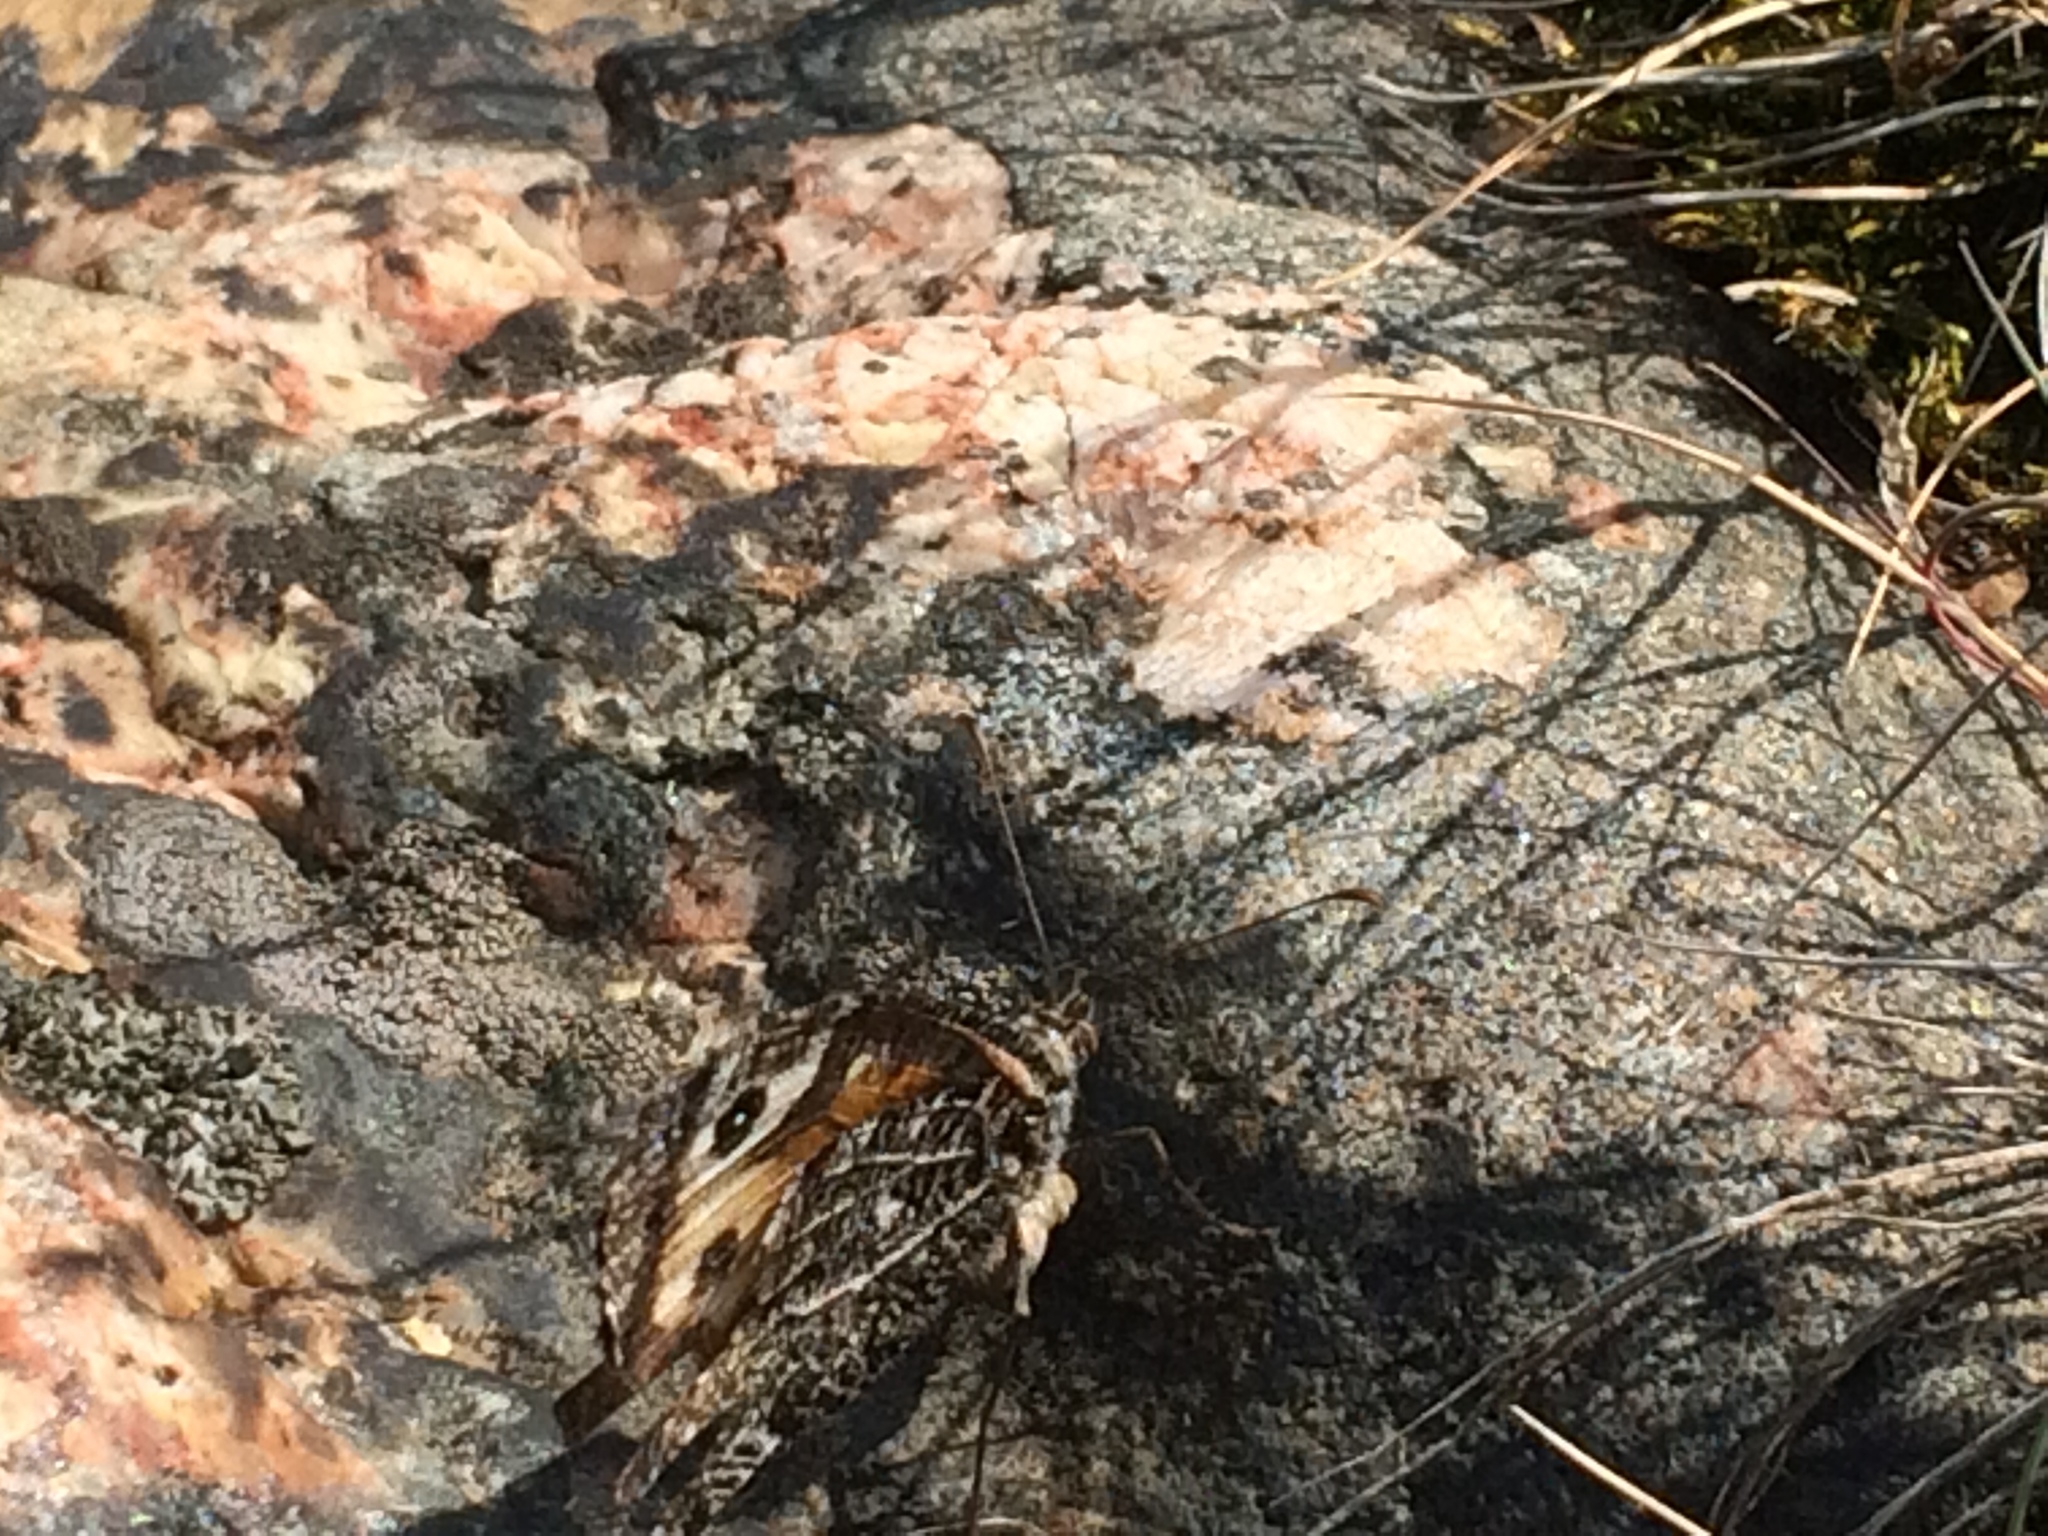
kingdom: Animalia
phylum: Arthropoda
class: Insecta
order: Lepidoptera
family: Nymphalidae
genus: Hipparchia
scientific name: Hipparchia semele
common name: Grayling
